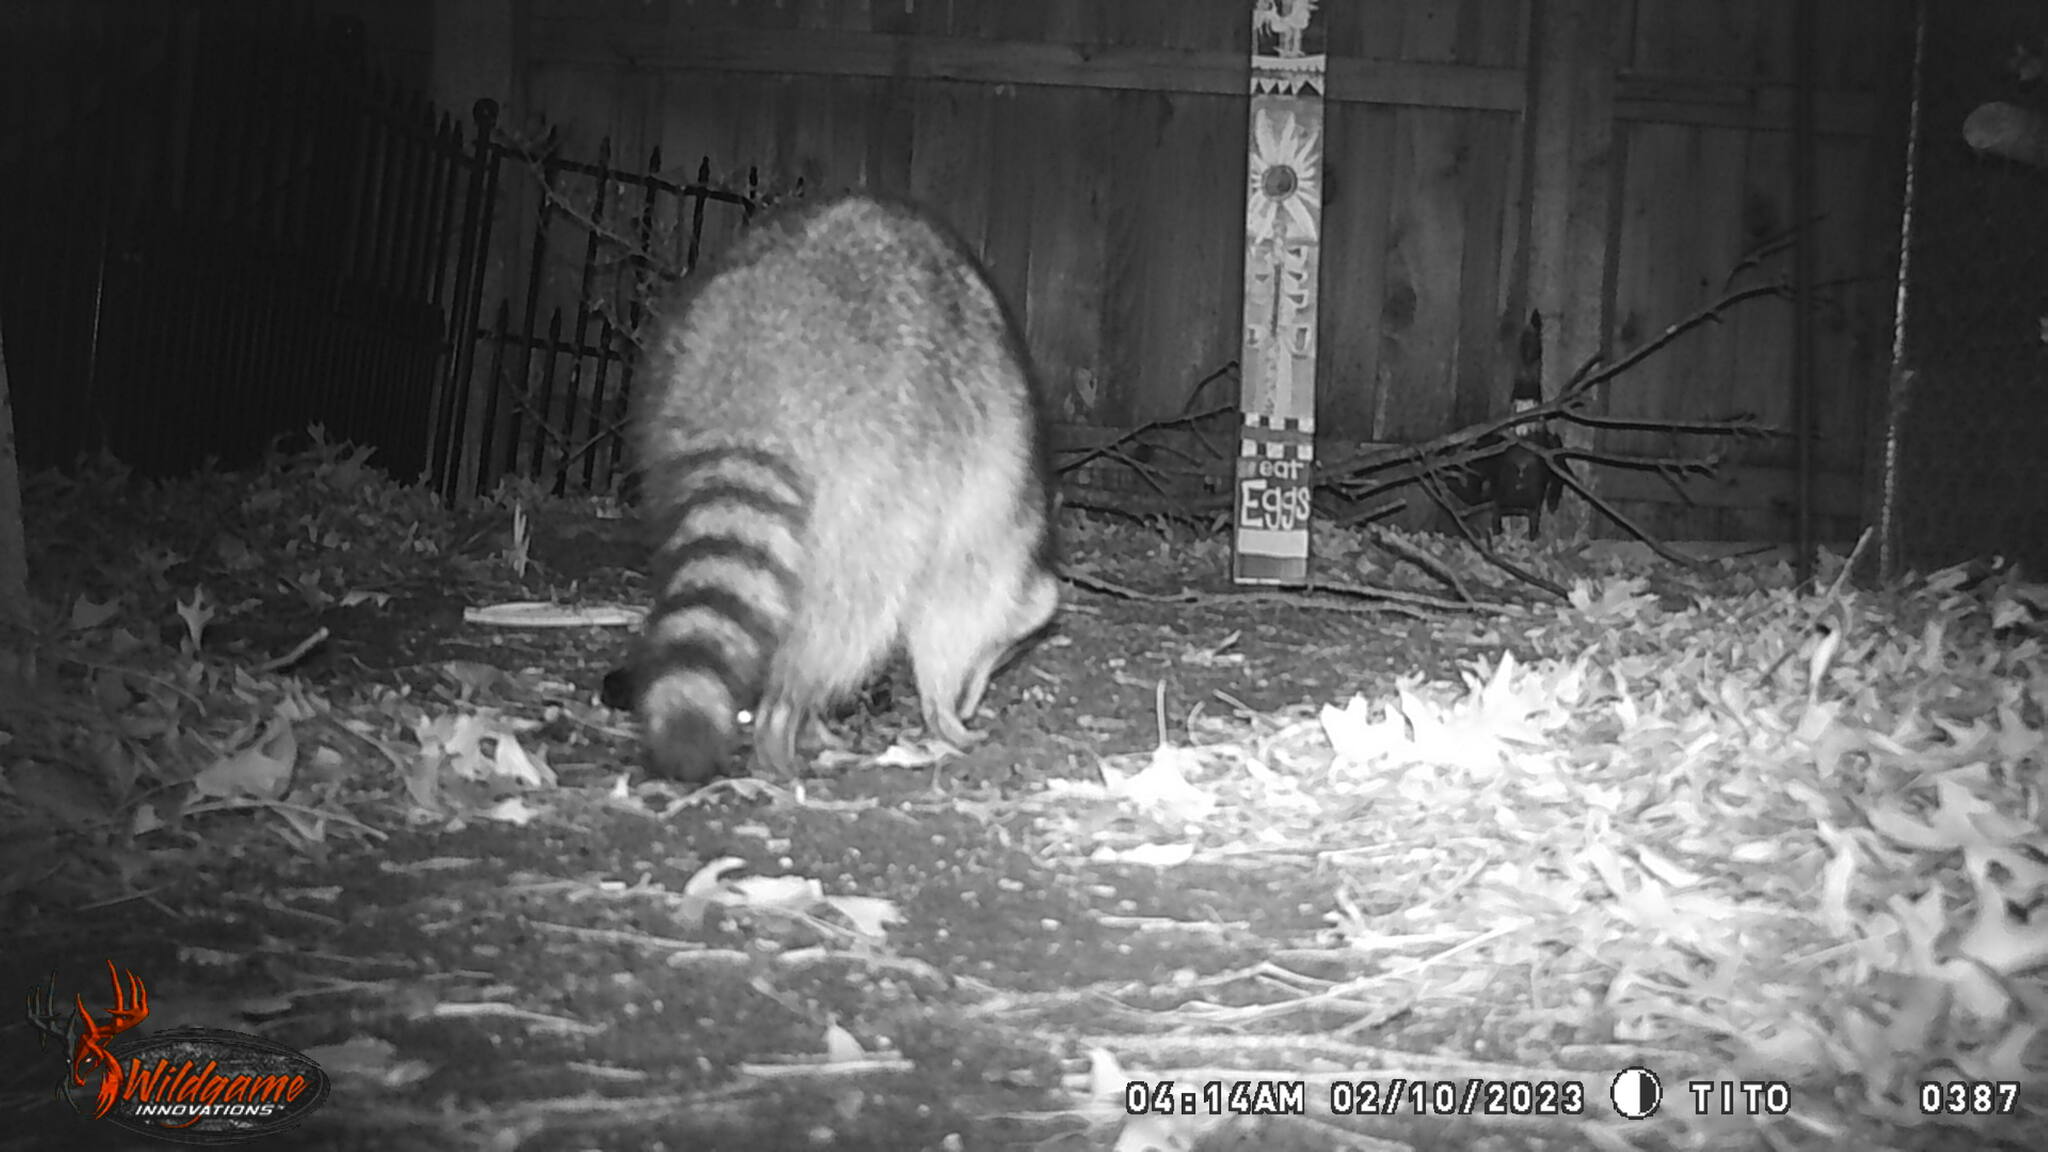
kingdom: Animalia
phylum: Chordata
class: Mammalia
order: Carnivora
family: Procyonidae
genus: Procyon
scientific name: Procyon lotor
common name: Raccoon
